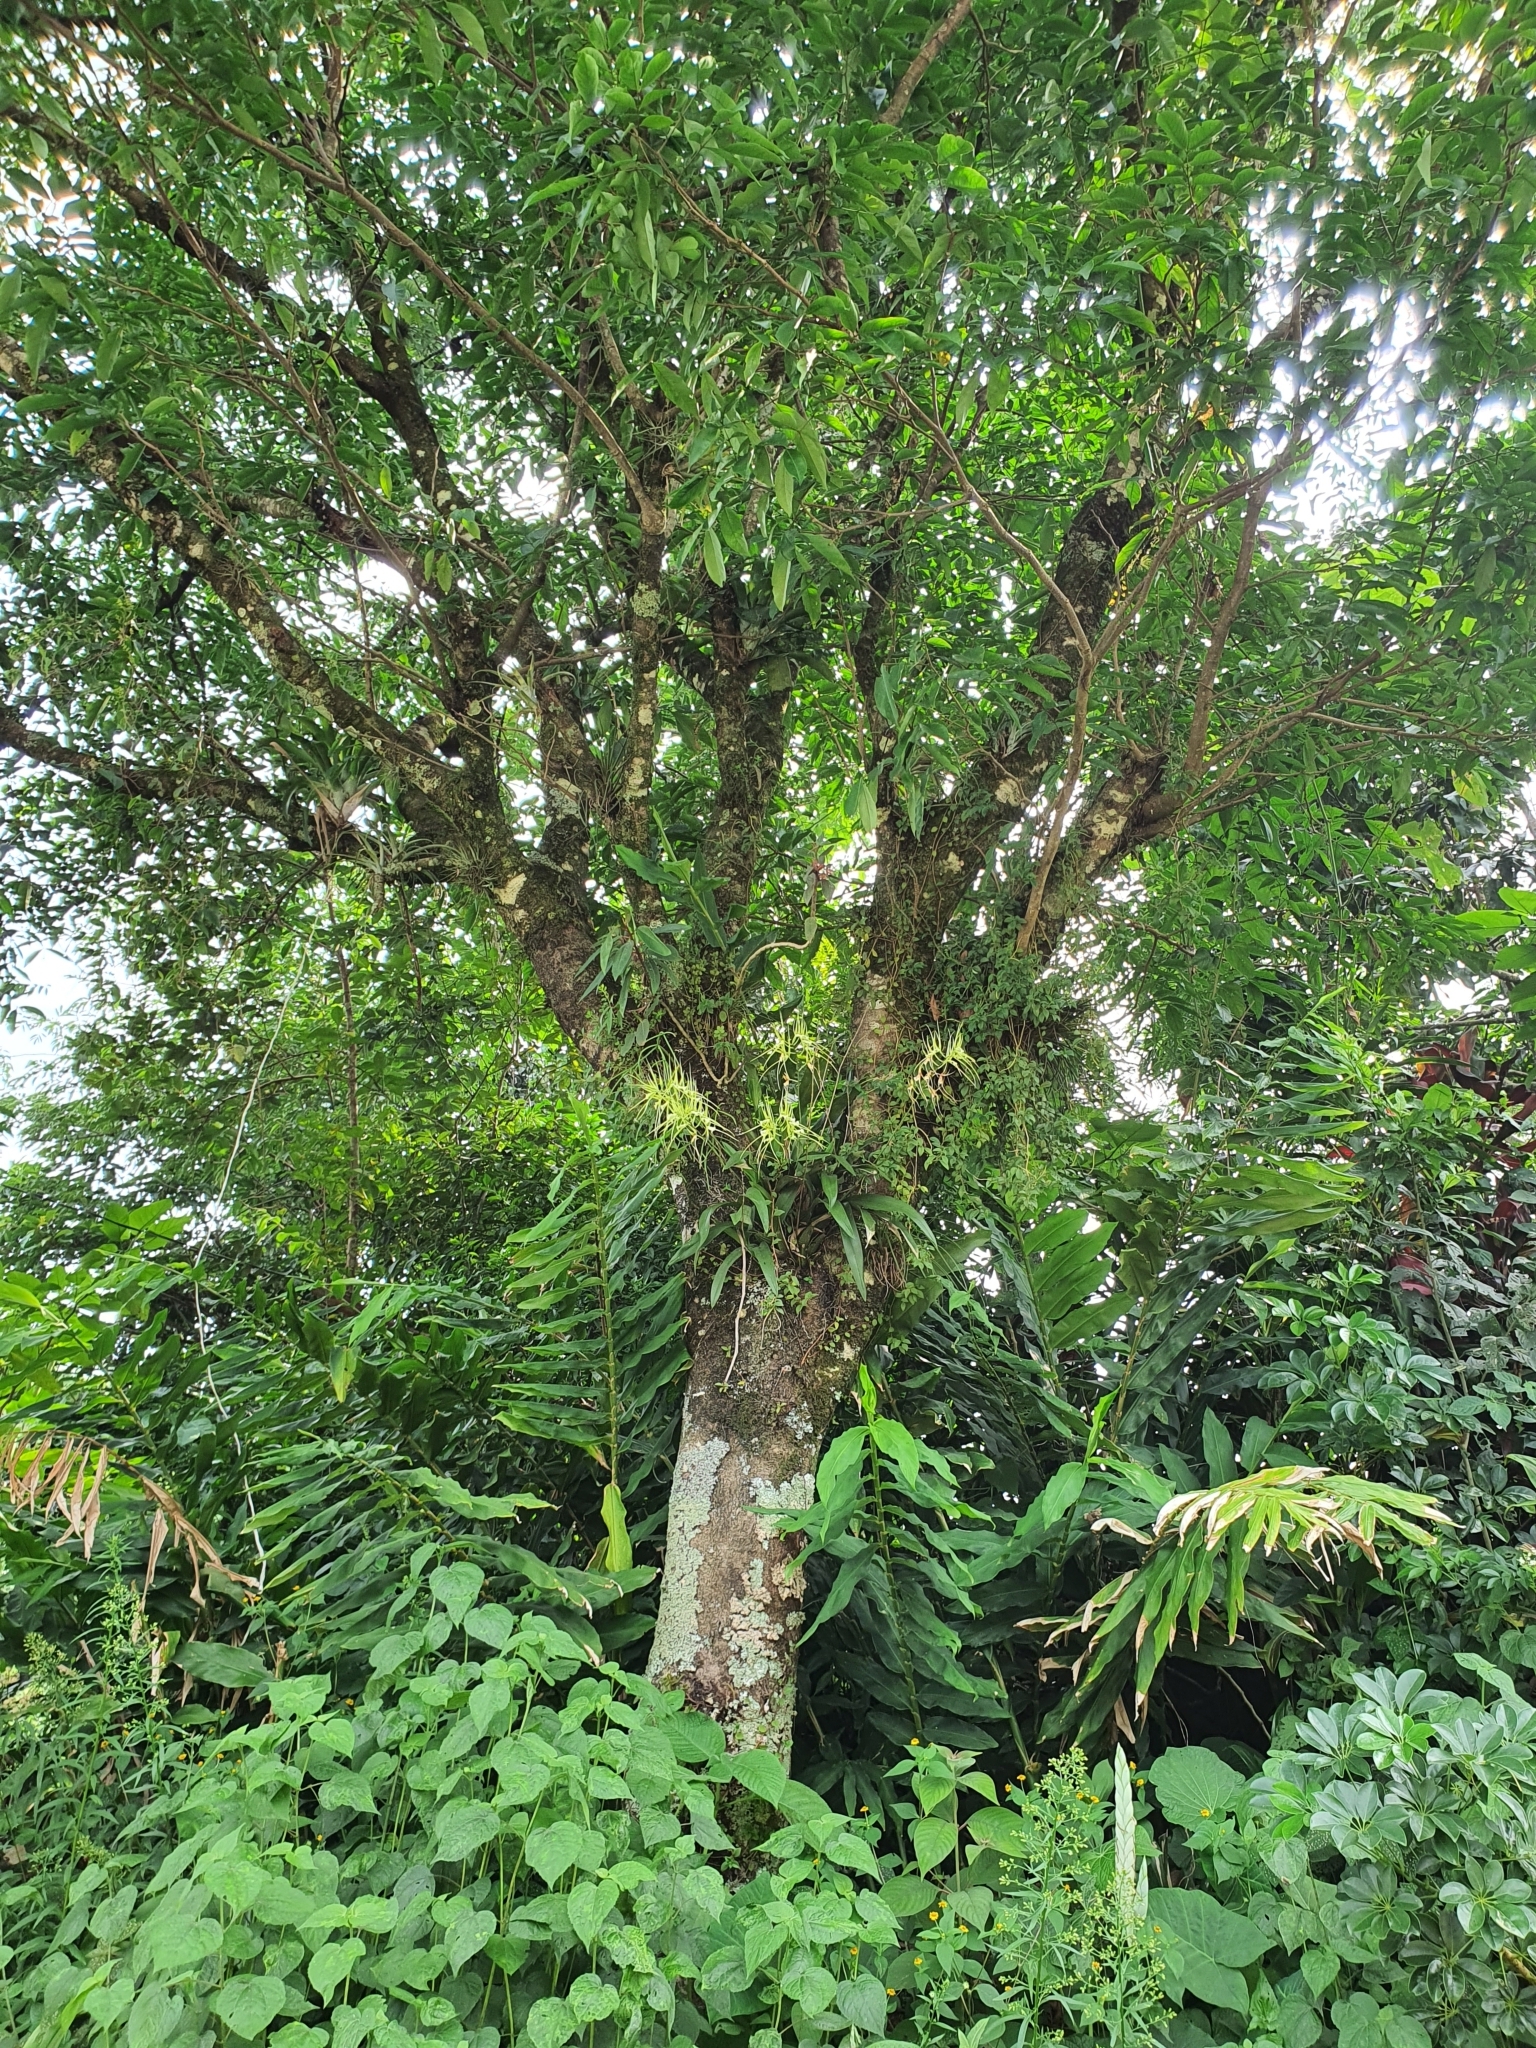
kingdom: Plantae
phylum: Tracheophyta
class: Liliopsida
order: Asparagales
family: Orchidaceae
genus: Brassia
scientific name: Brassia verrucosa
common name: Warty brassia
